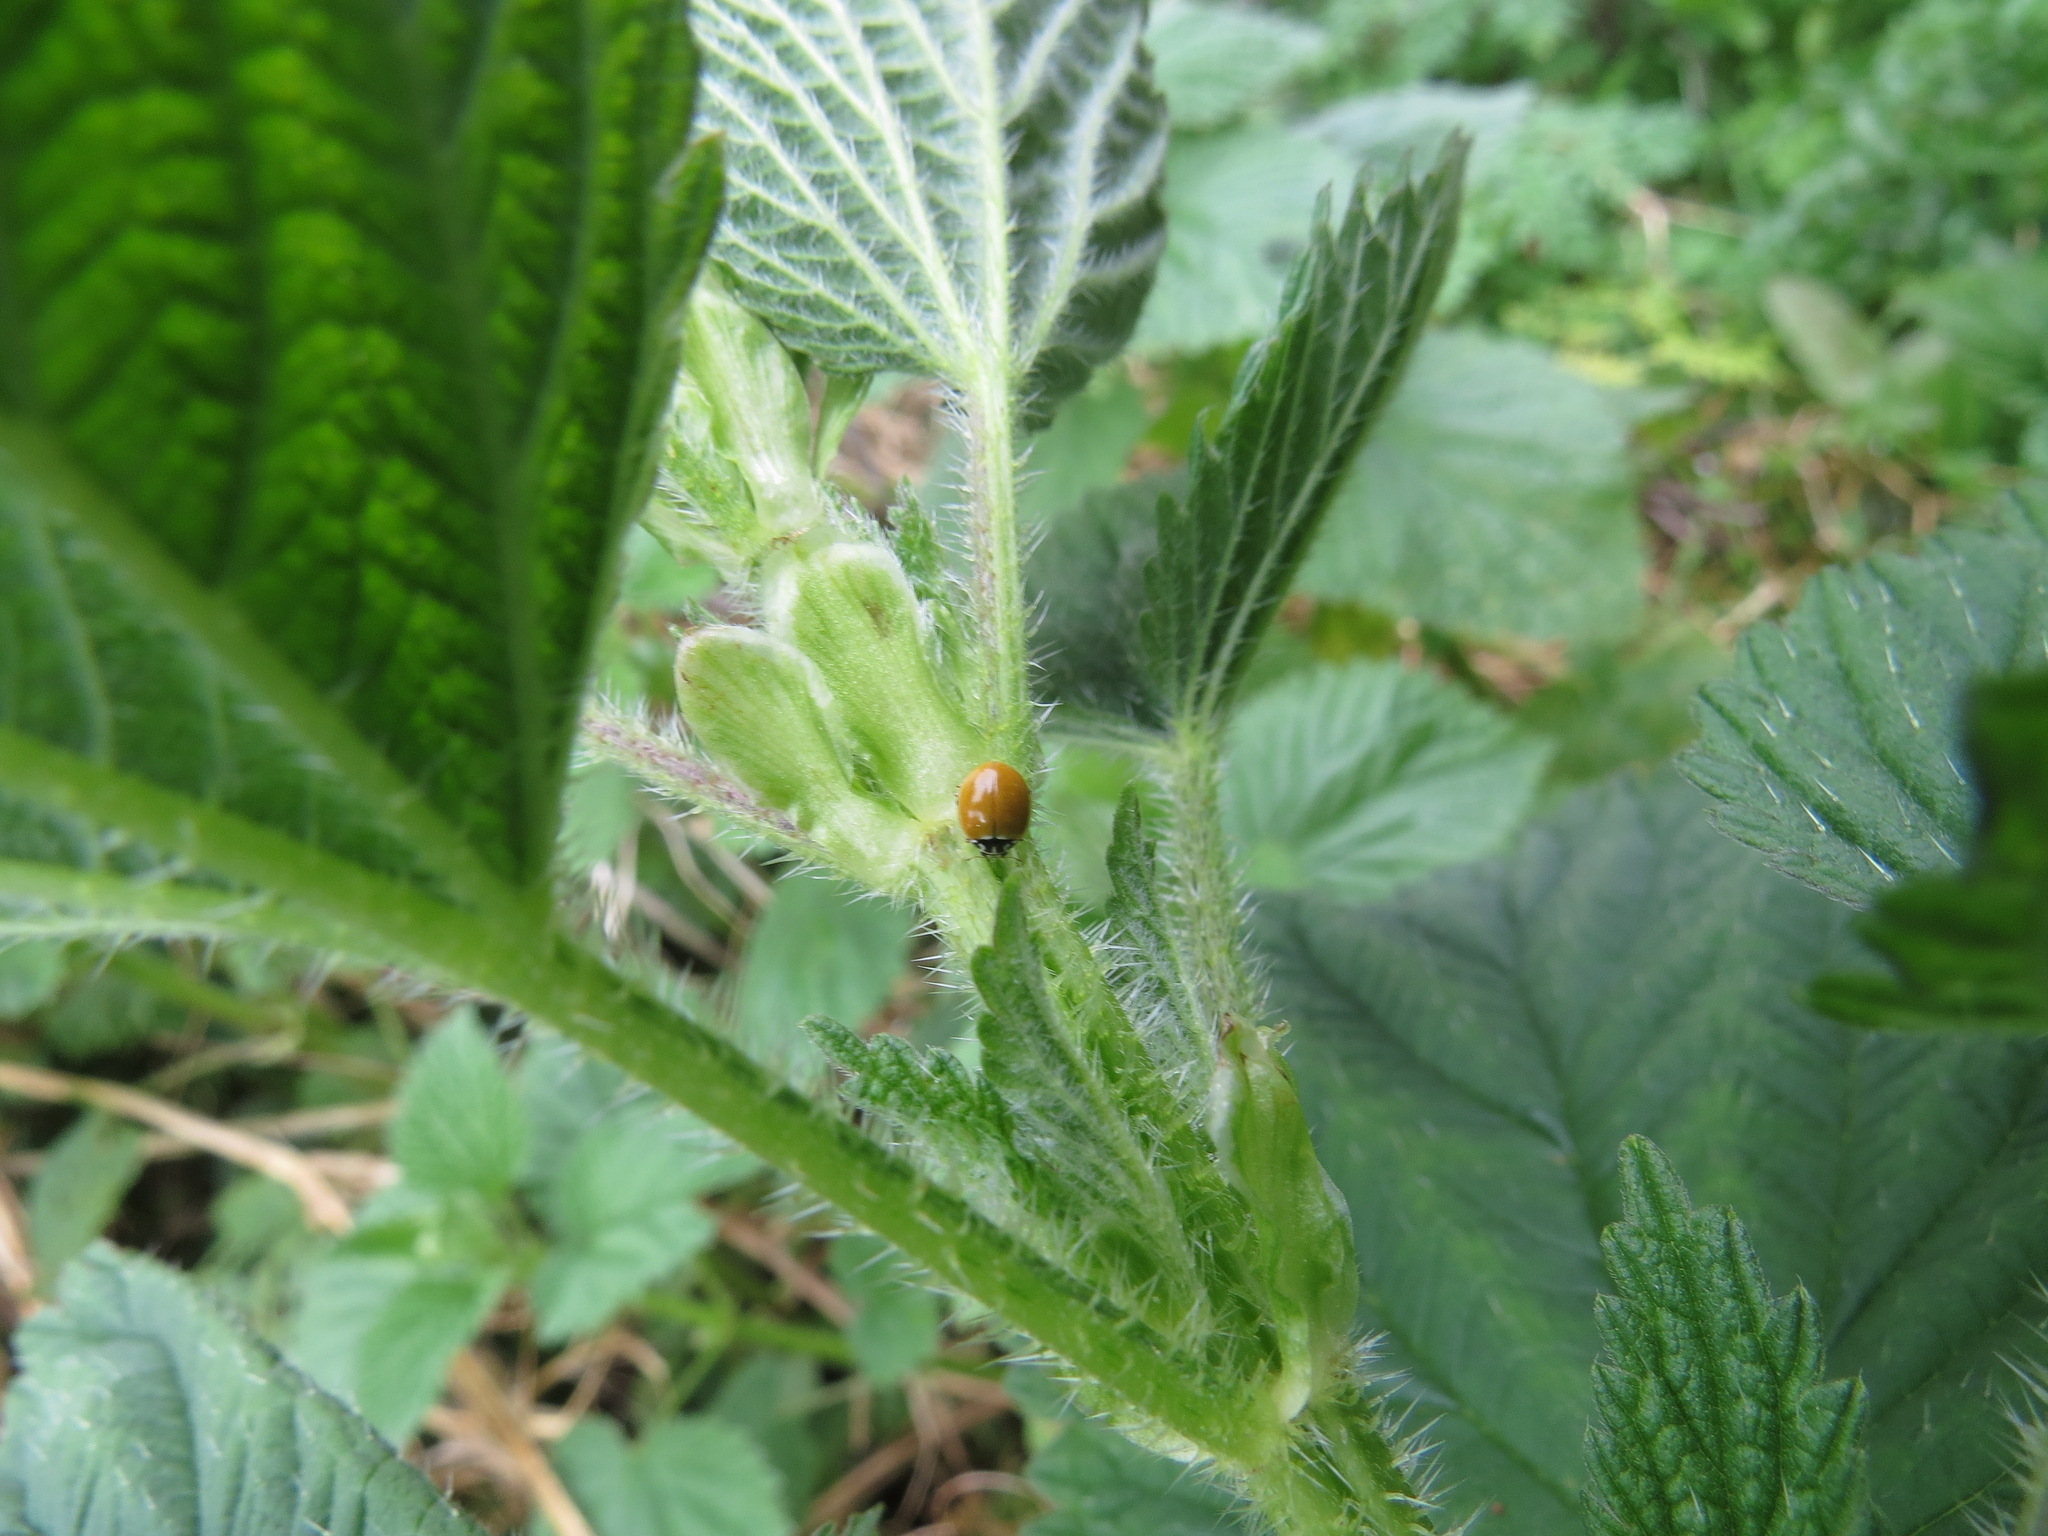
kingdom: Animalia
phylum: Arthropoda
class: Insecta
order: Coleoptera
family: Coccinellidae
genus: Cycloneda
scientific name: Cycloneda polita
